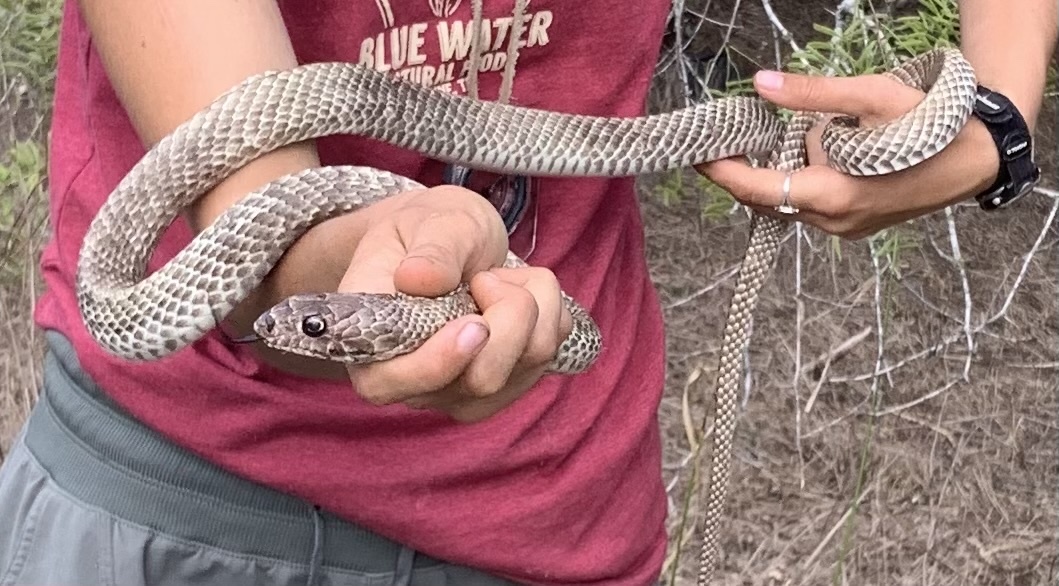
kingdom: Animalia
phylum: Chordata
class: Squamata
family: Colubridae
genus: Masticophis
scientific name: Masticophis flagellum
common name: Coachwhip
